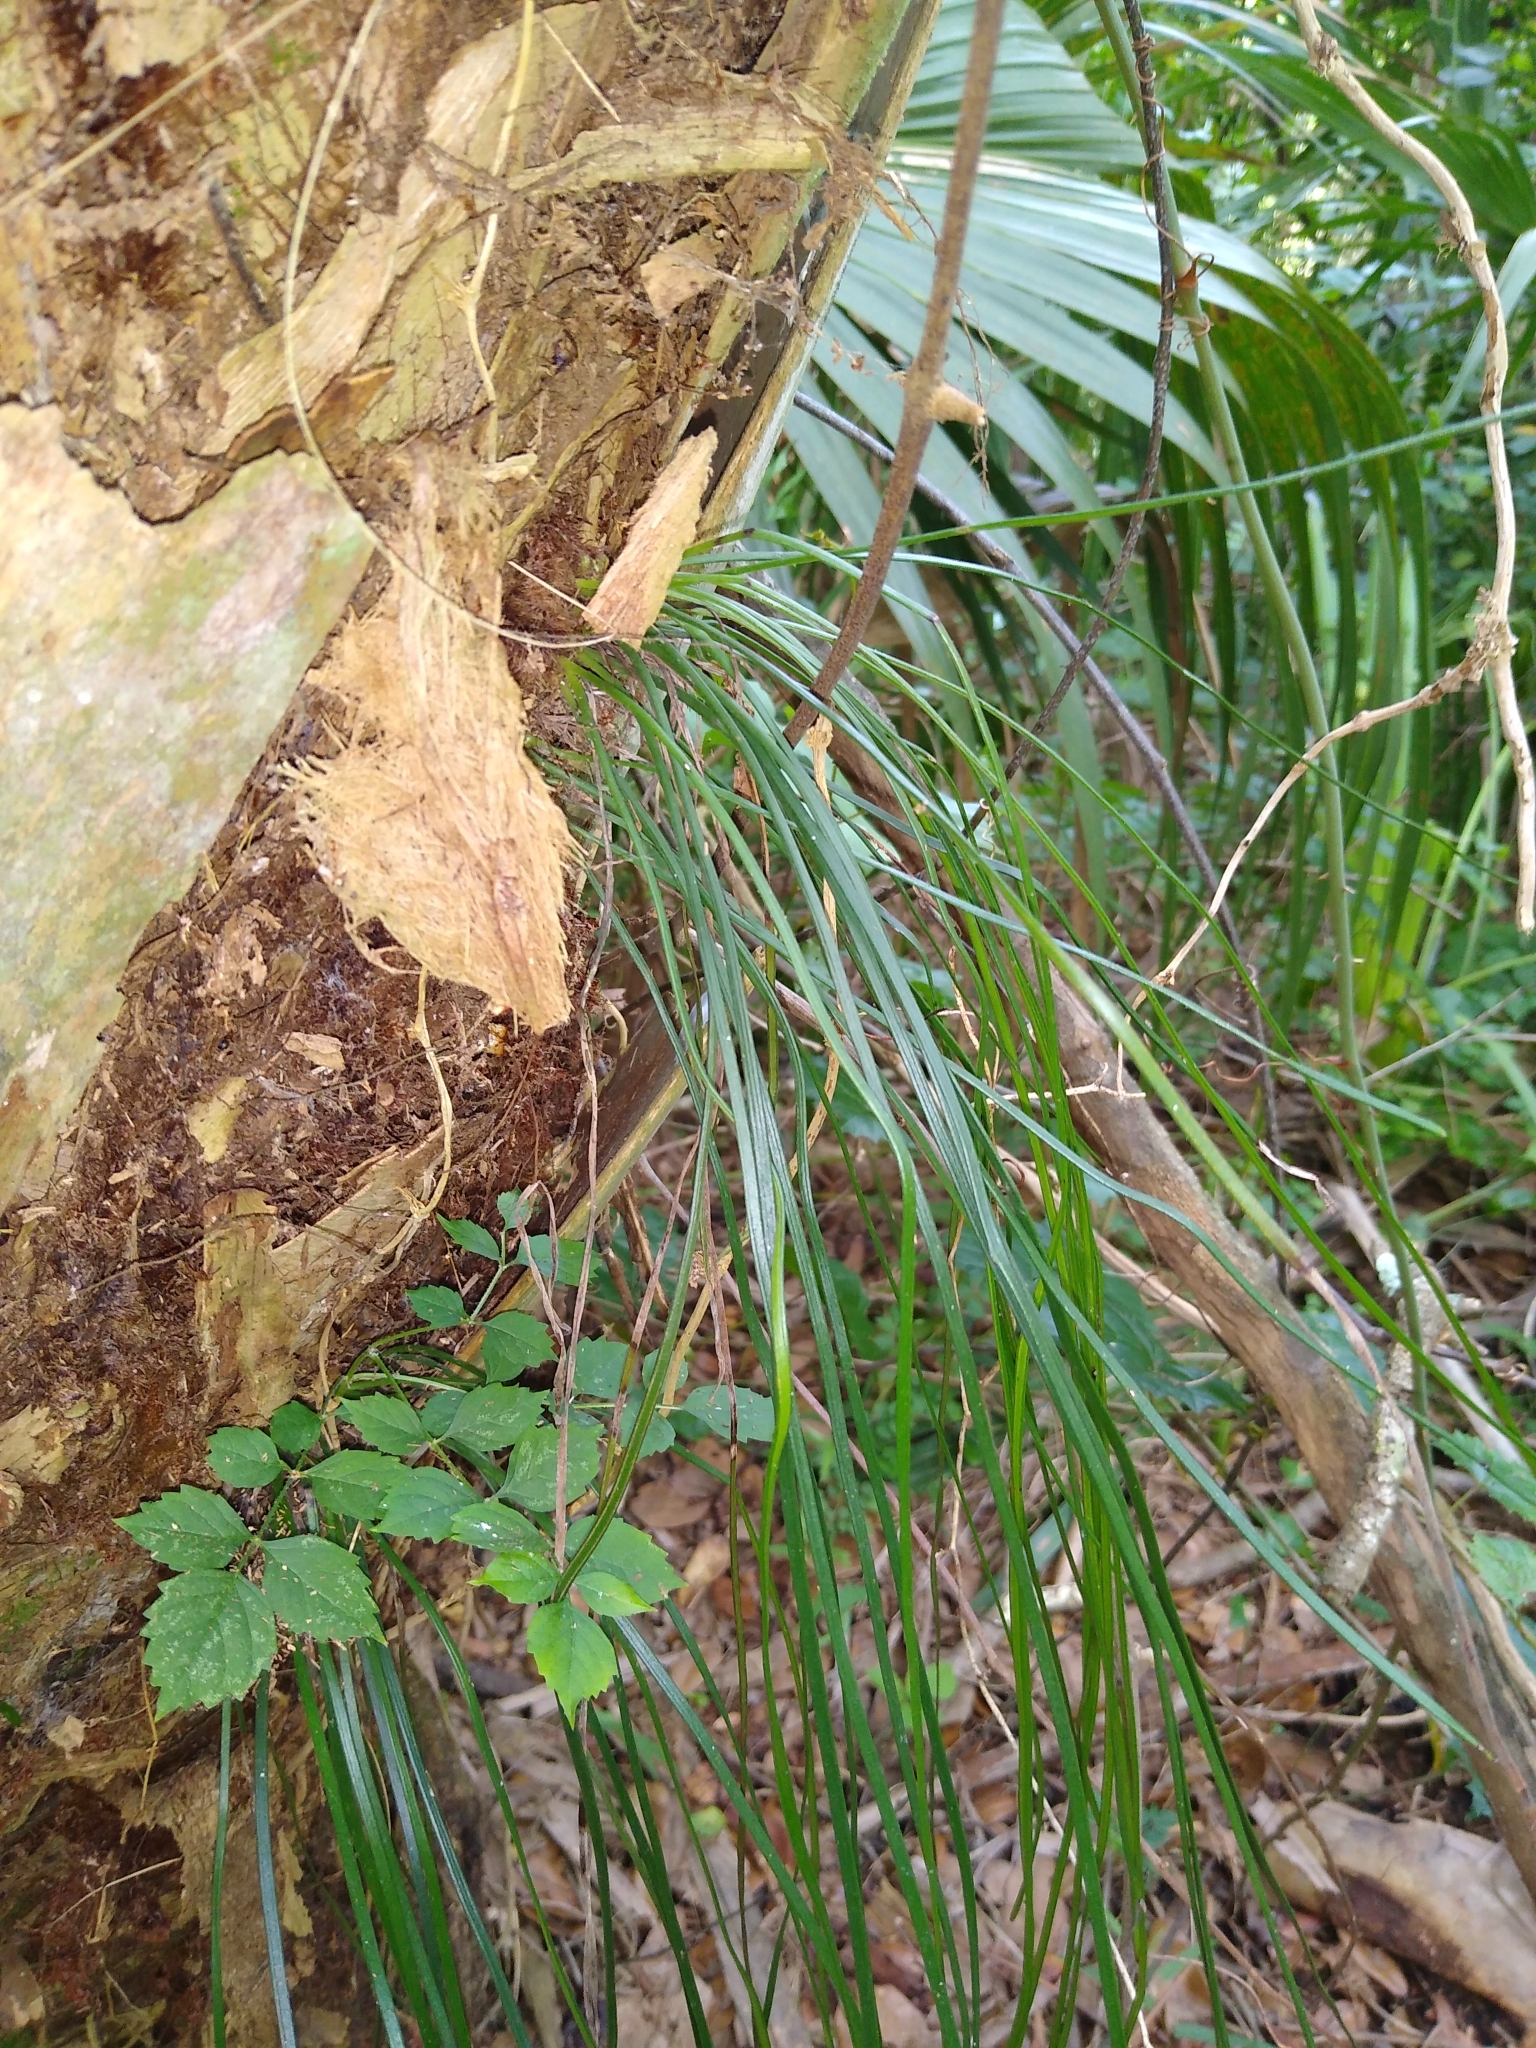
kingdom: Plantae
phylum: Tracheophyta
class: Polypodiopsida
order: Polypodiales
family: Pteridaceae
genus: Vittaria
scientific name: Vittaria lineata
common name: Shoestring fern
